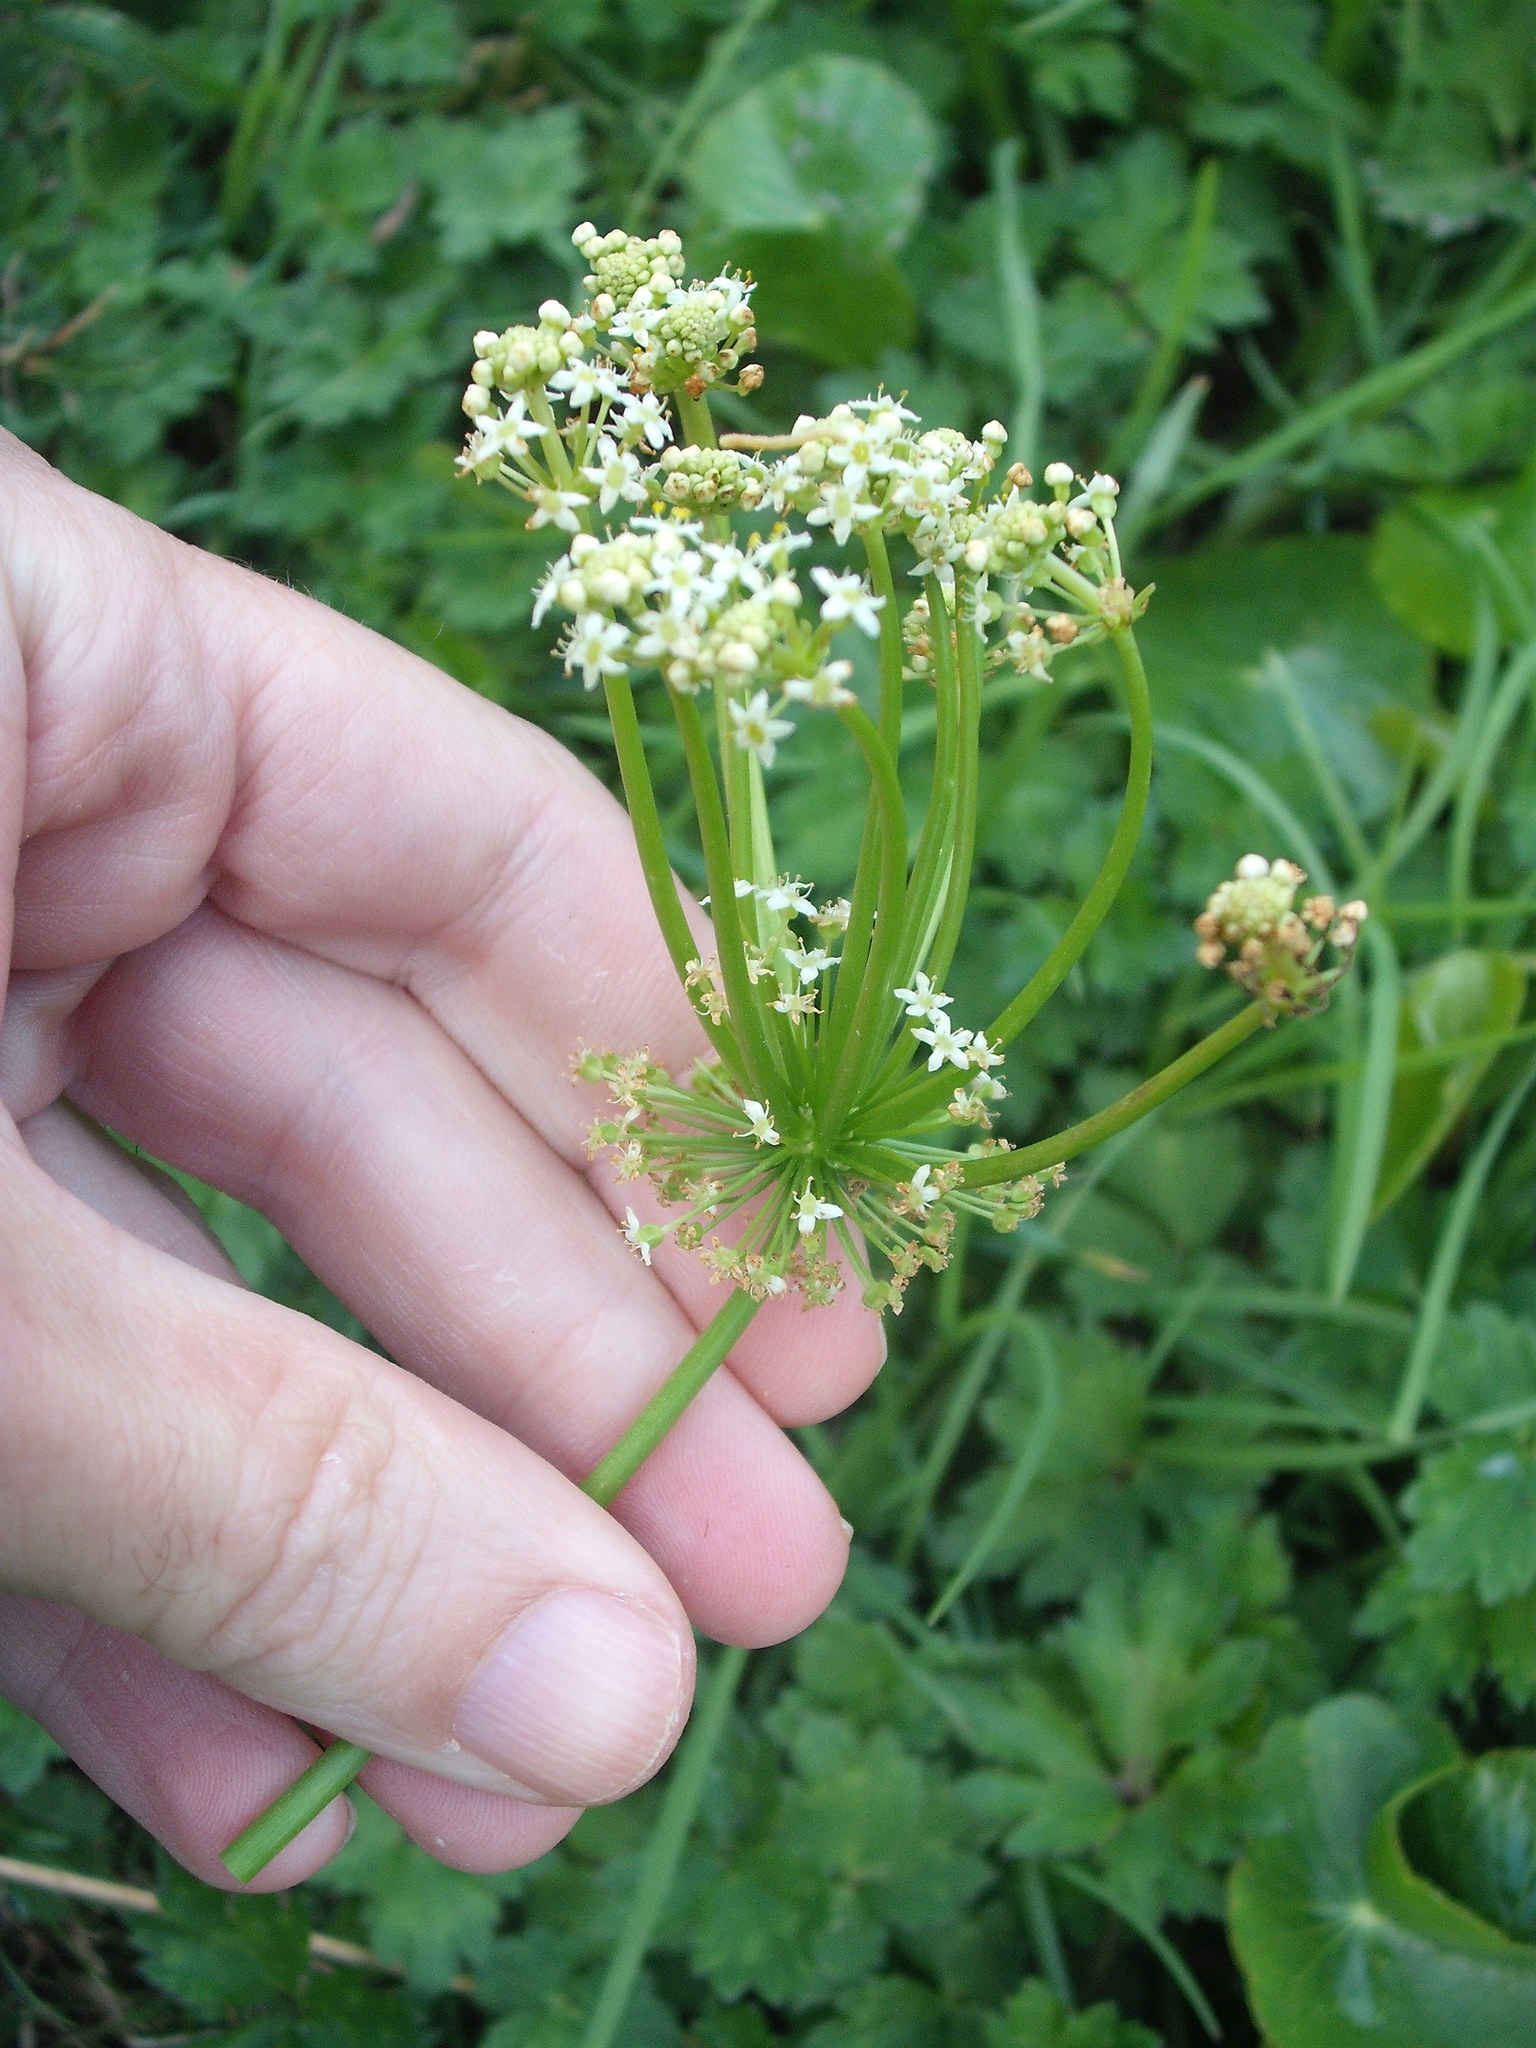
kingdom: Plantae
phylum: Tracheophyta
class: Magnoliopsida
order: Apiales
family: Araliaceae
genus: Hydrocotyle
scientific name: Hydrocotyle bonariensis
